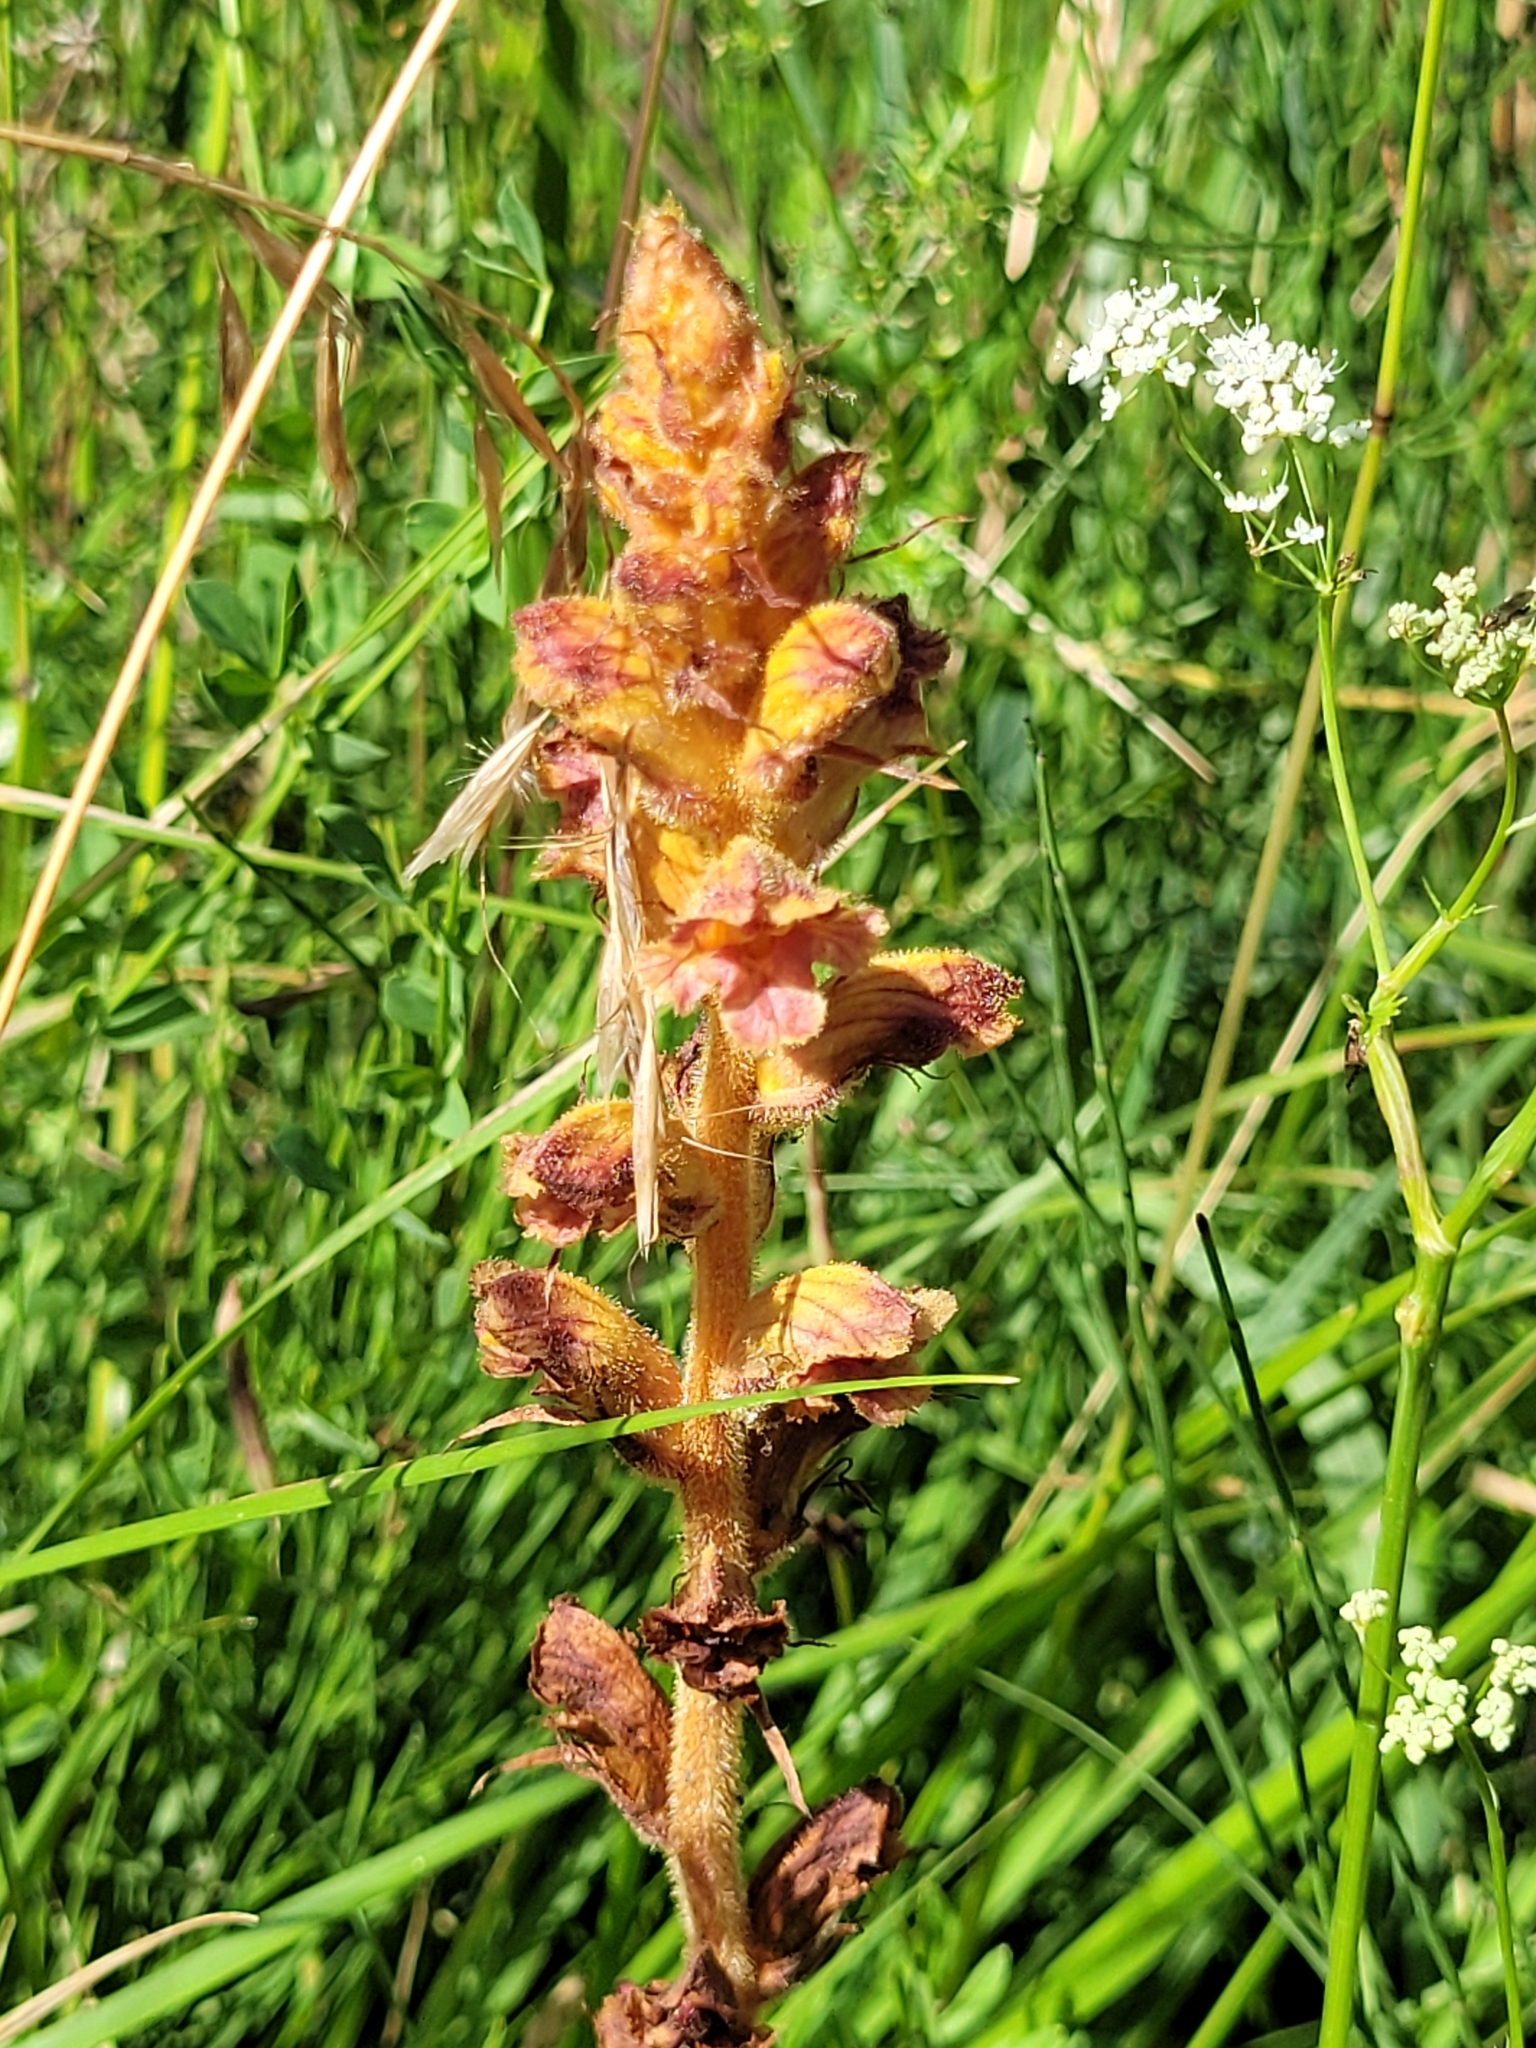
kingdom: Plantae
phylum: Tracheophyta
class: Magnoliopsida
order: Lamiales
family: Orobanchaceae
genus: Orobanche
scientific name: Orobanche gracilis
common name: Slender broomrape
